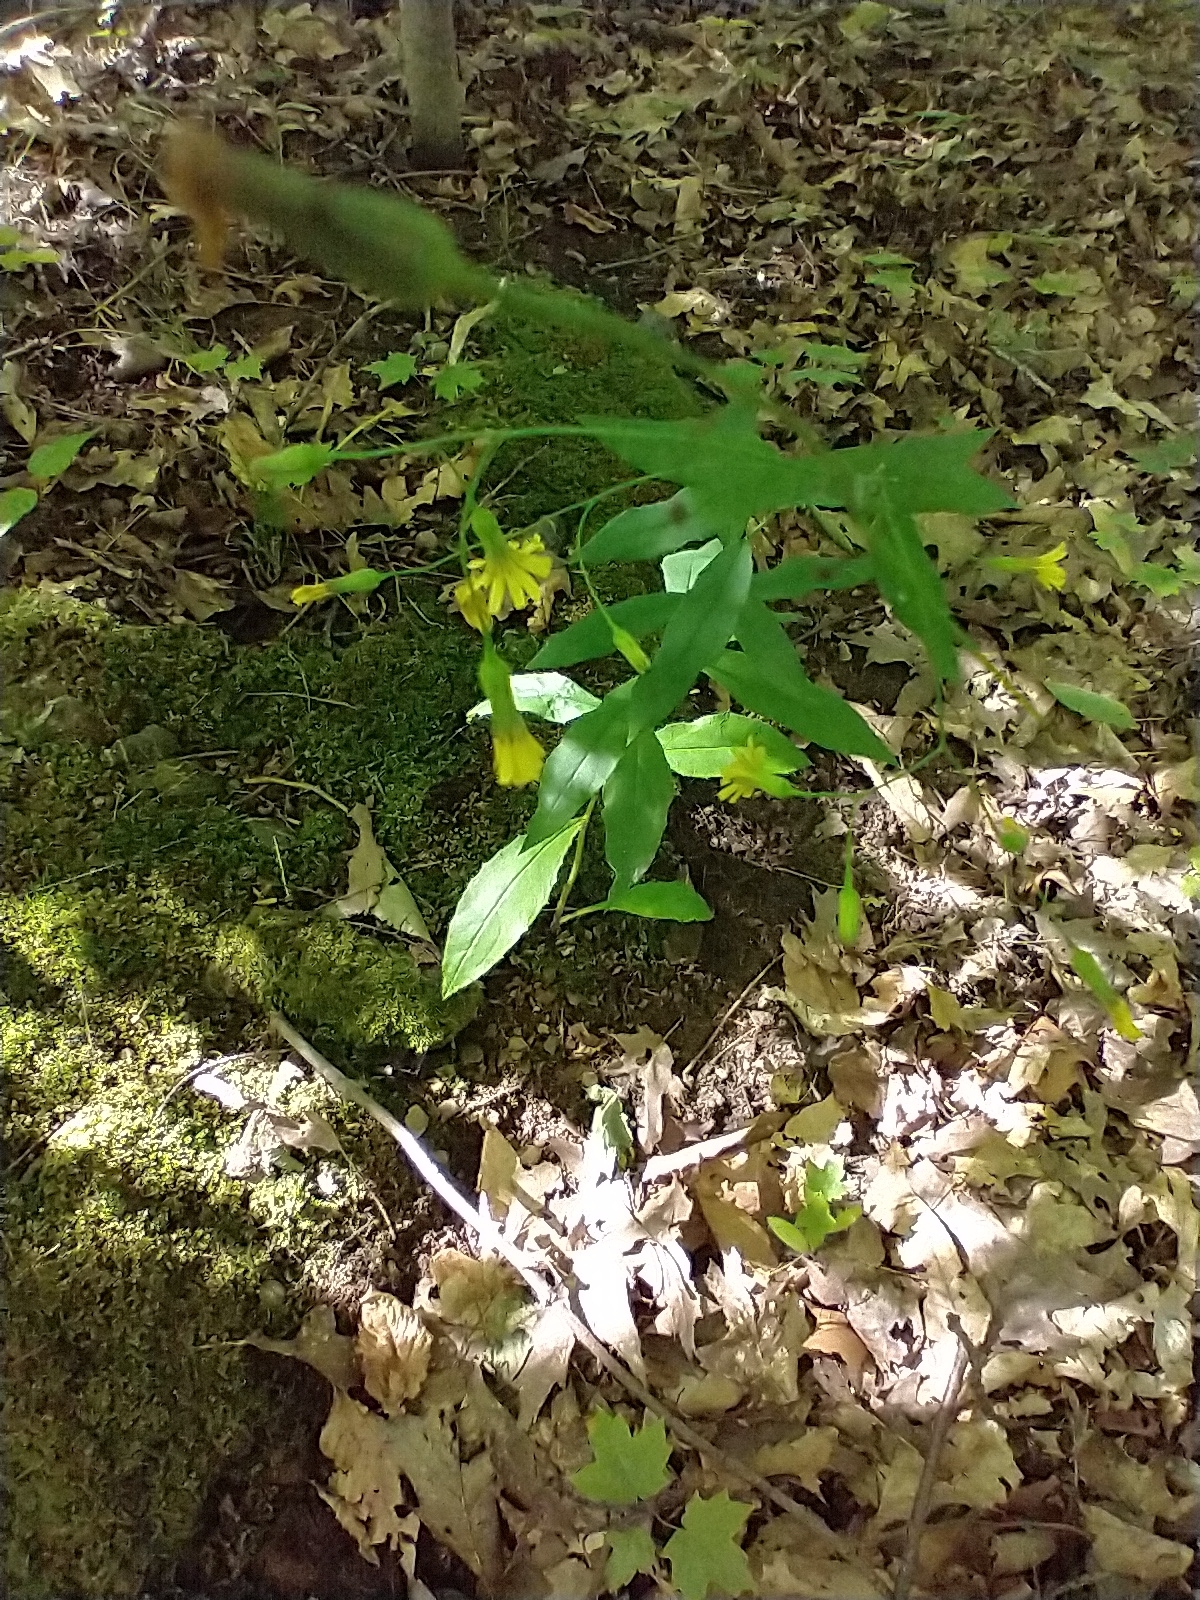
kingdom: Plantae
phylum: Tracheophyta
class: Magnoliopsida
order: Asterales
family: Asteraceae
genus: Hieracium
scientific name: Hieracium paniculatum
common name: Allegheny hawkweed
